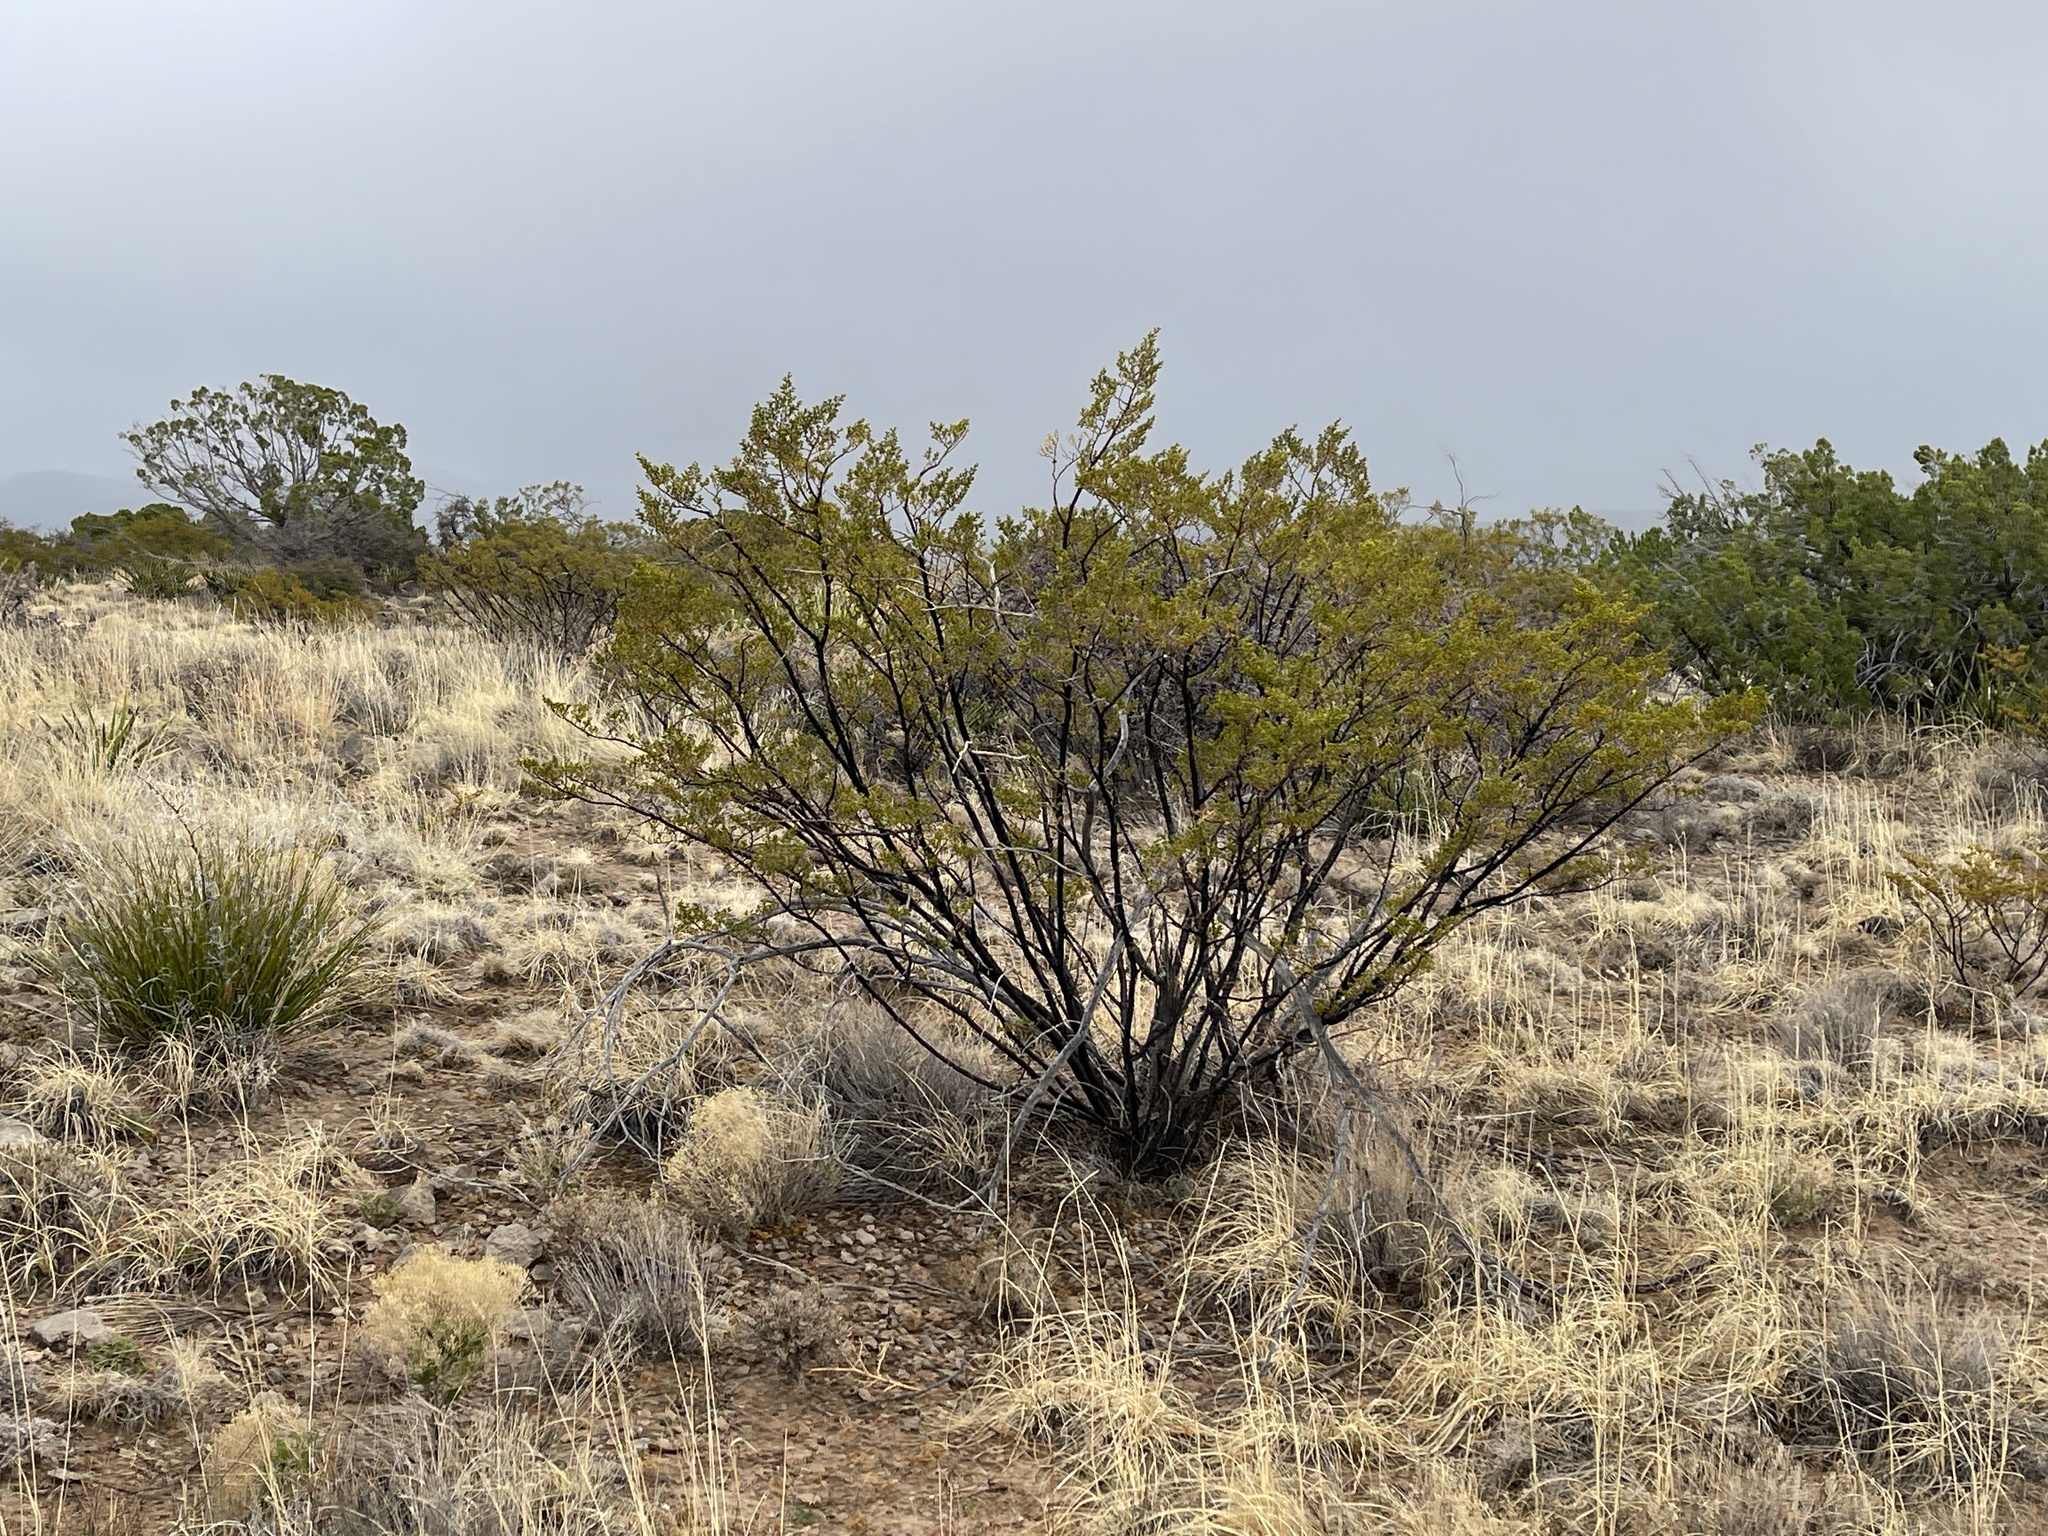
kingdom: Plantae
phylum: Tracheophyta
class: Magnoliopsida
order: Zygophyllales
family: Zygophyllaceae
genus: Larrea
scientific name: Larrea tridentata
